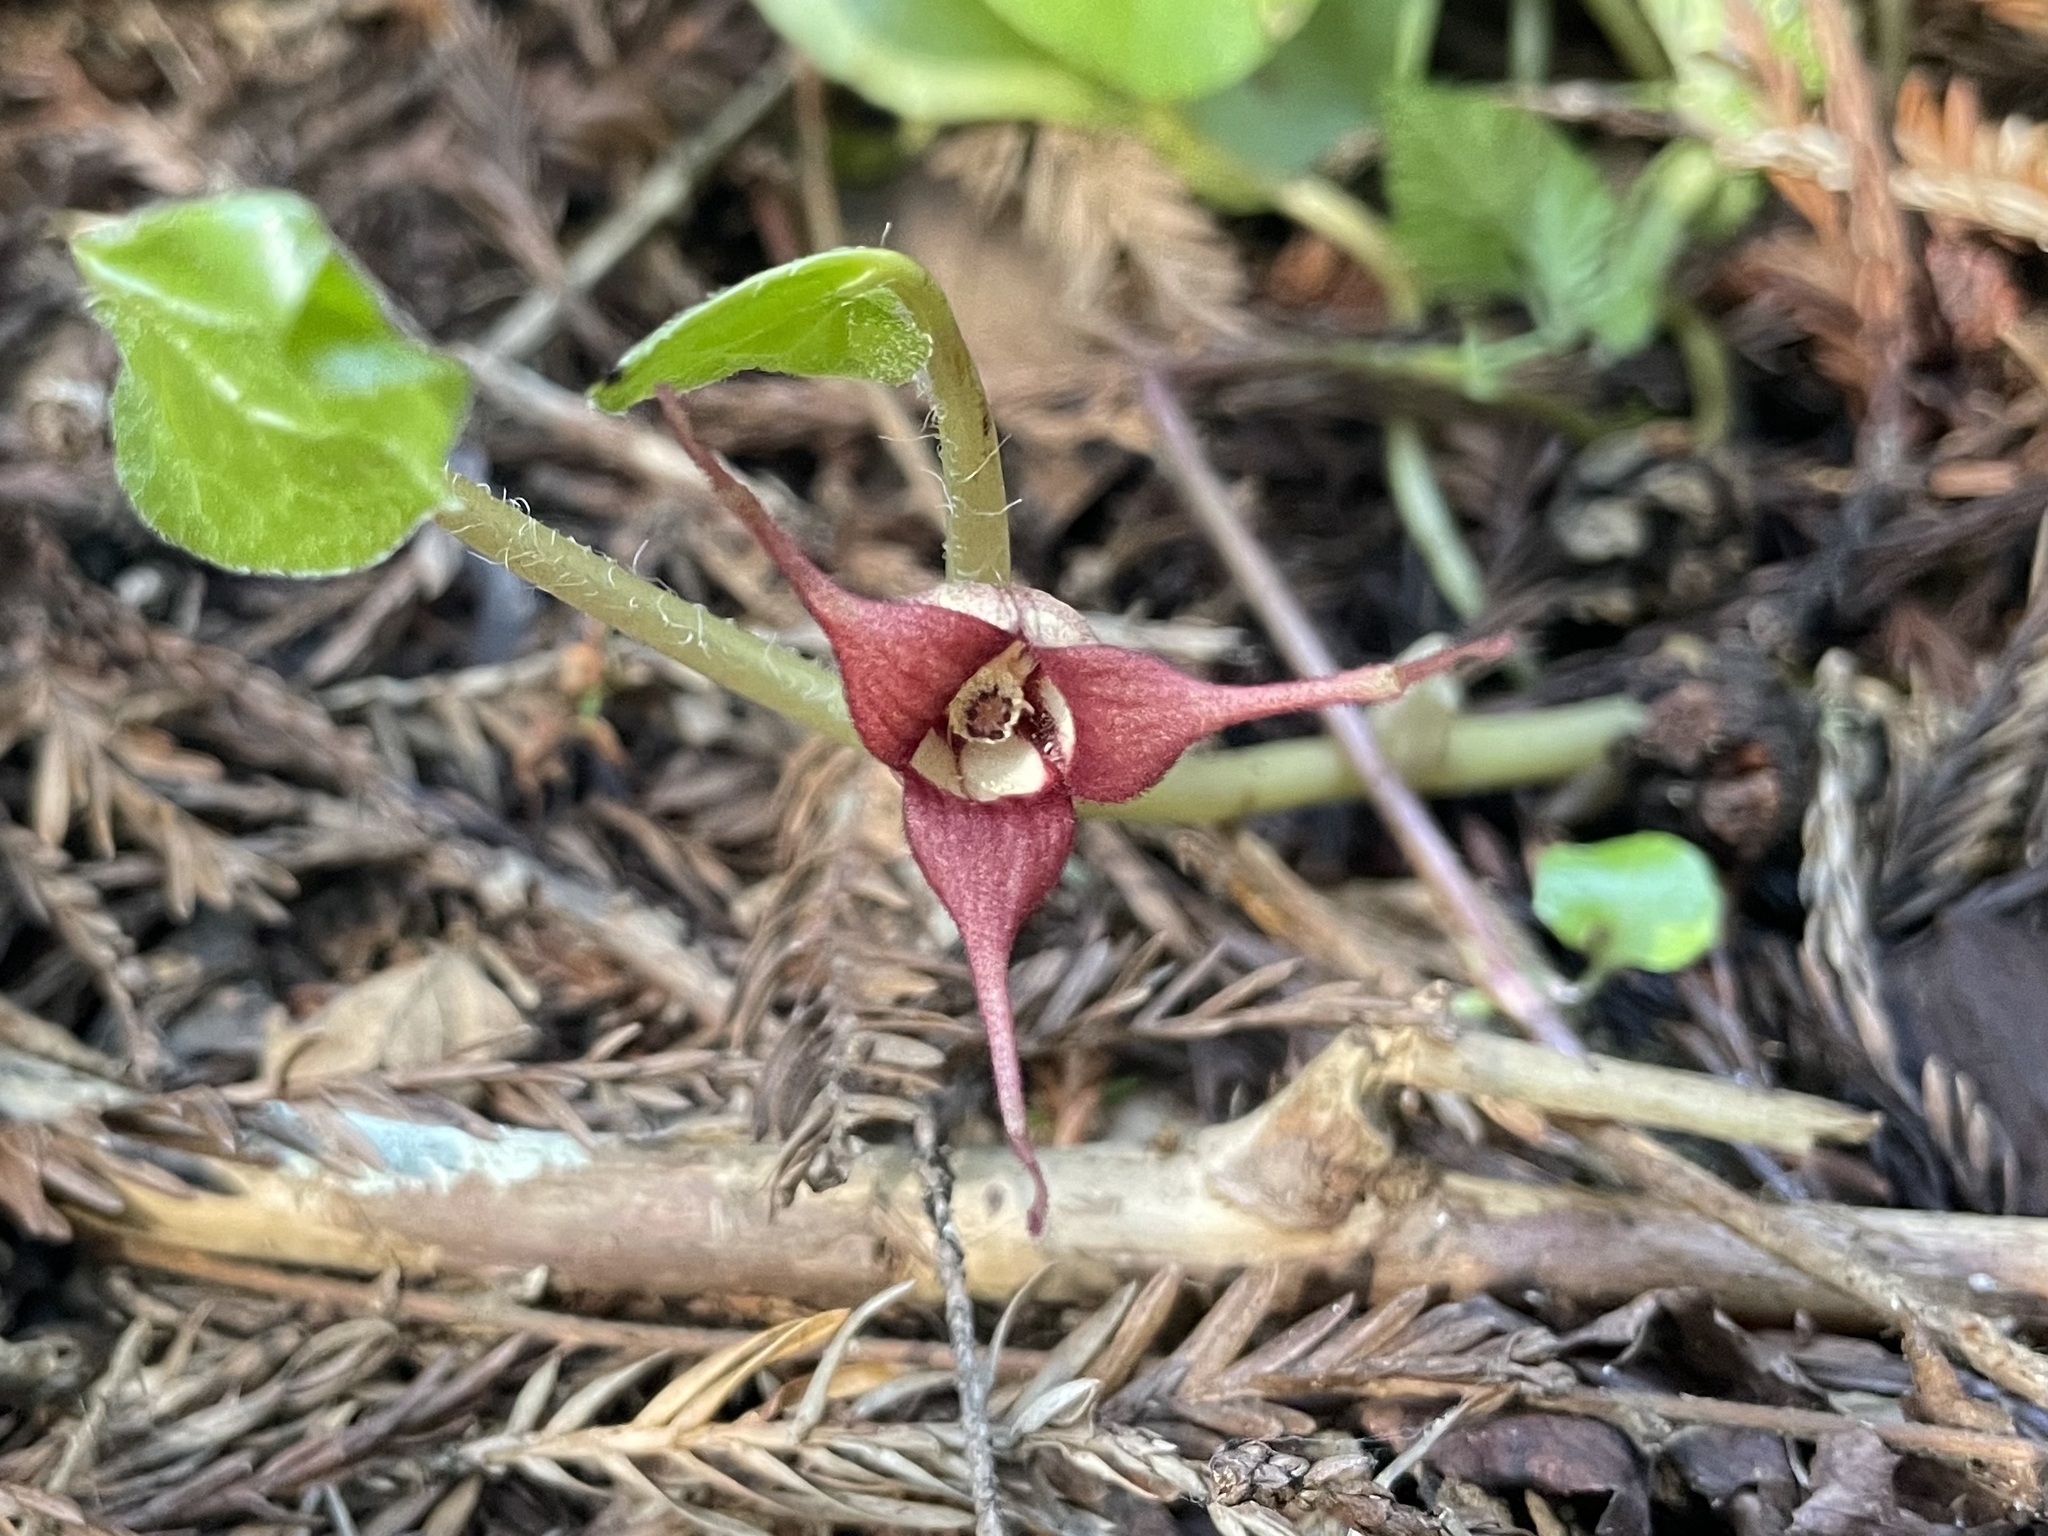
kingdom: Plantae
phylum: Tracheophyta
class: Magnoliopsida
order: Piperales
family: Aristolochiaceae
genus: Asarum
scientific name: Asarum caudatum
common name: Wild ginger
